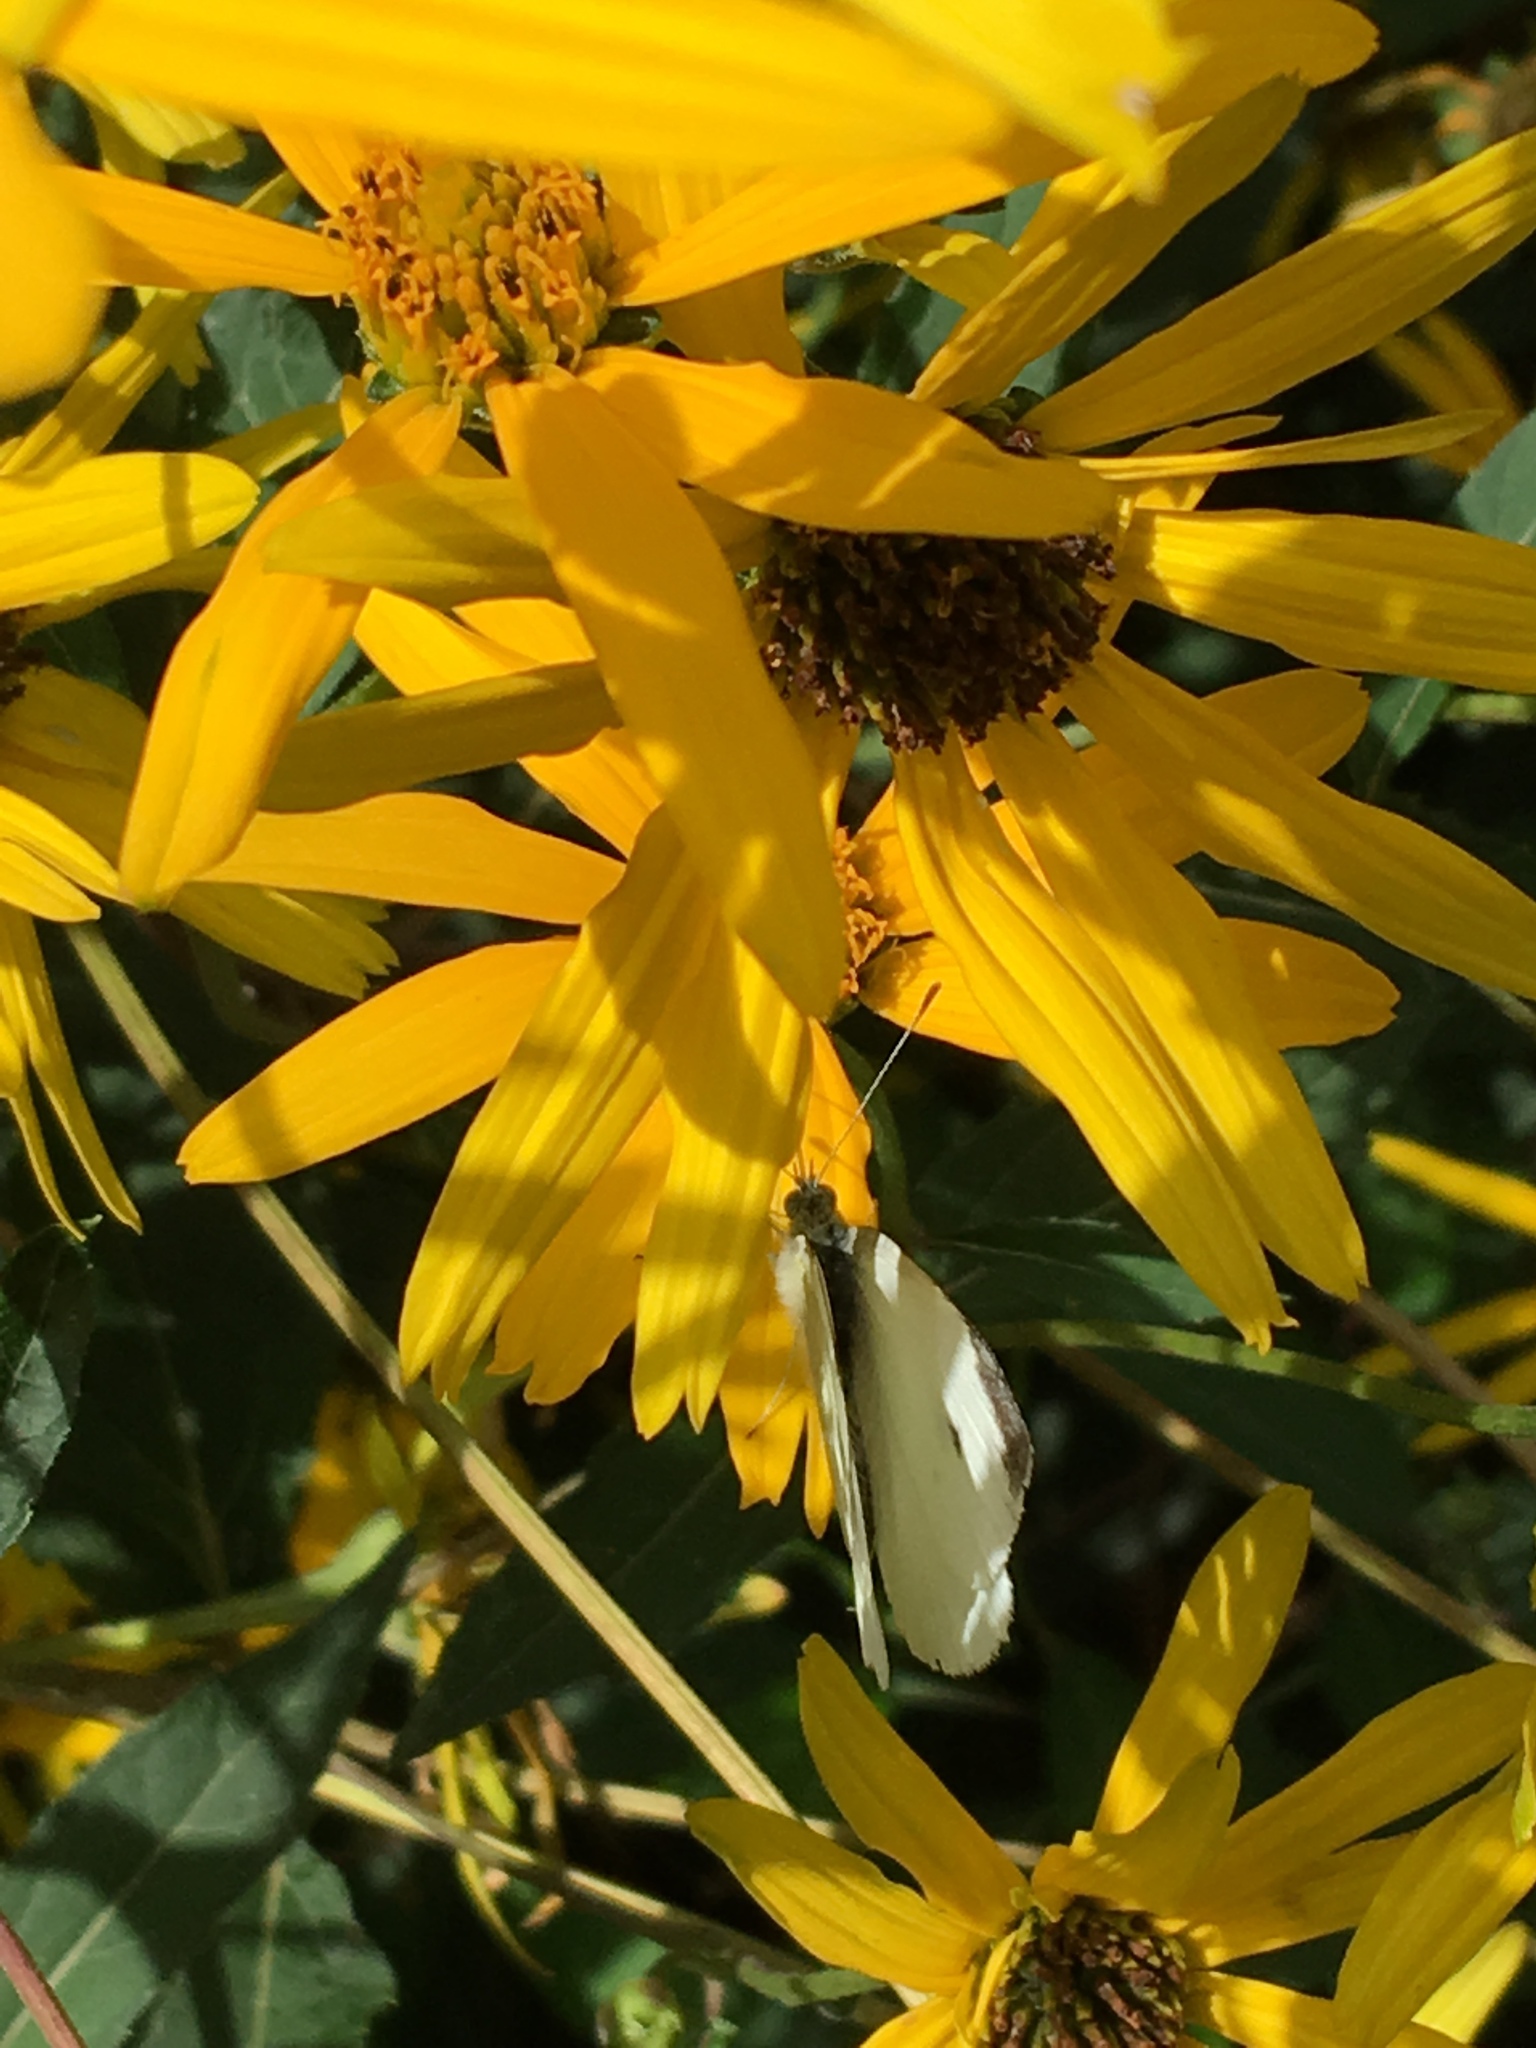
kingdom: Animalia
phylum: Arthropoda
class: Insecta
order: Lepidoptera
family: Pieridae
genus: Pieris
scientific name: Pieris rapae
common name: Small white
